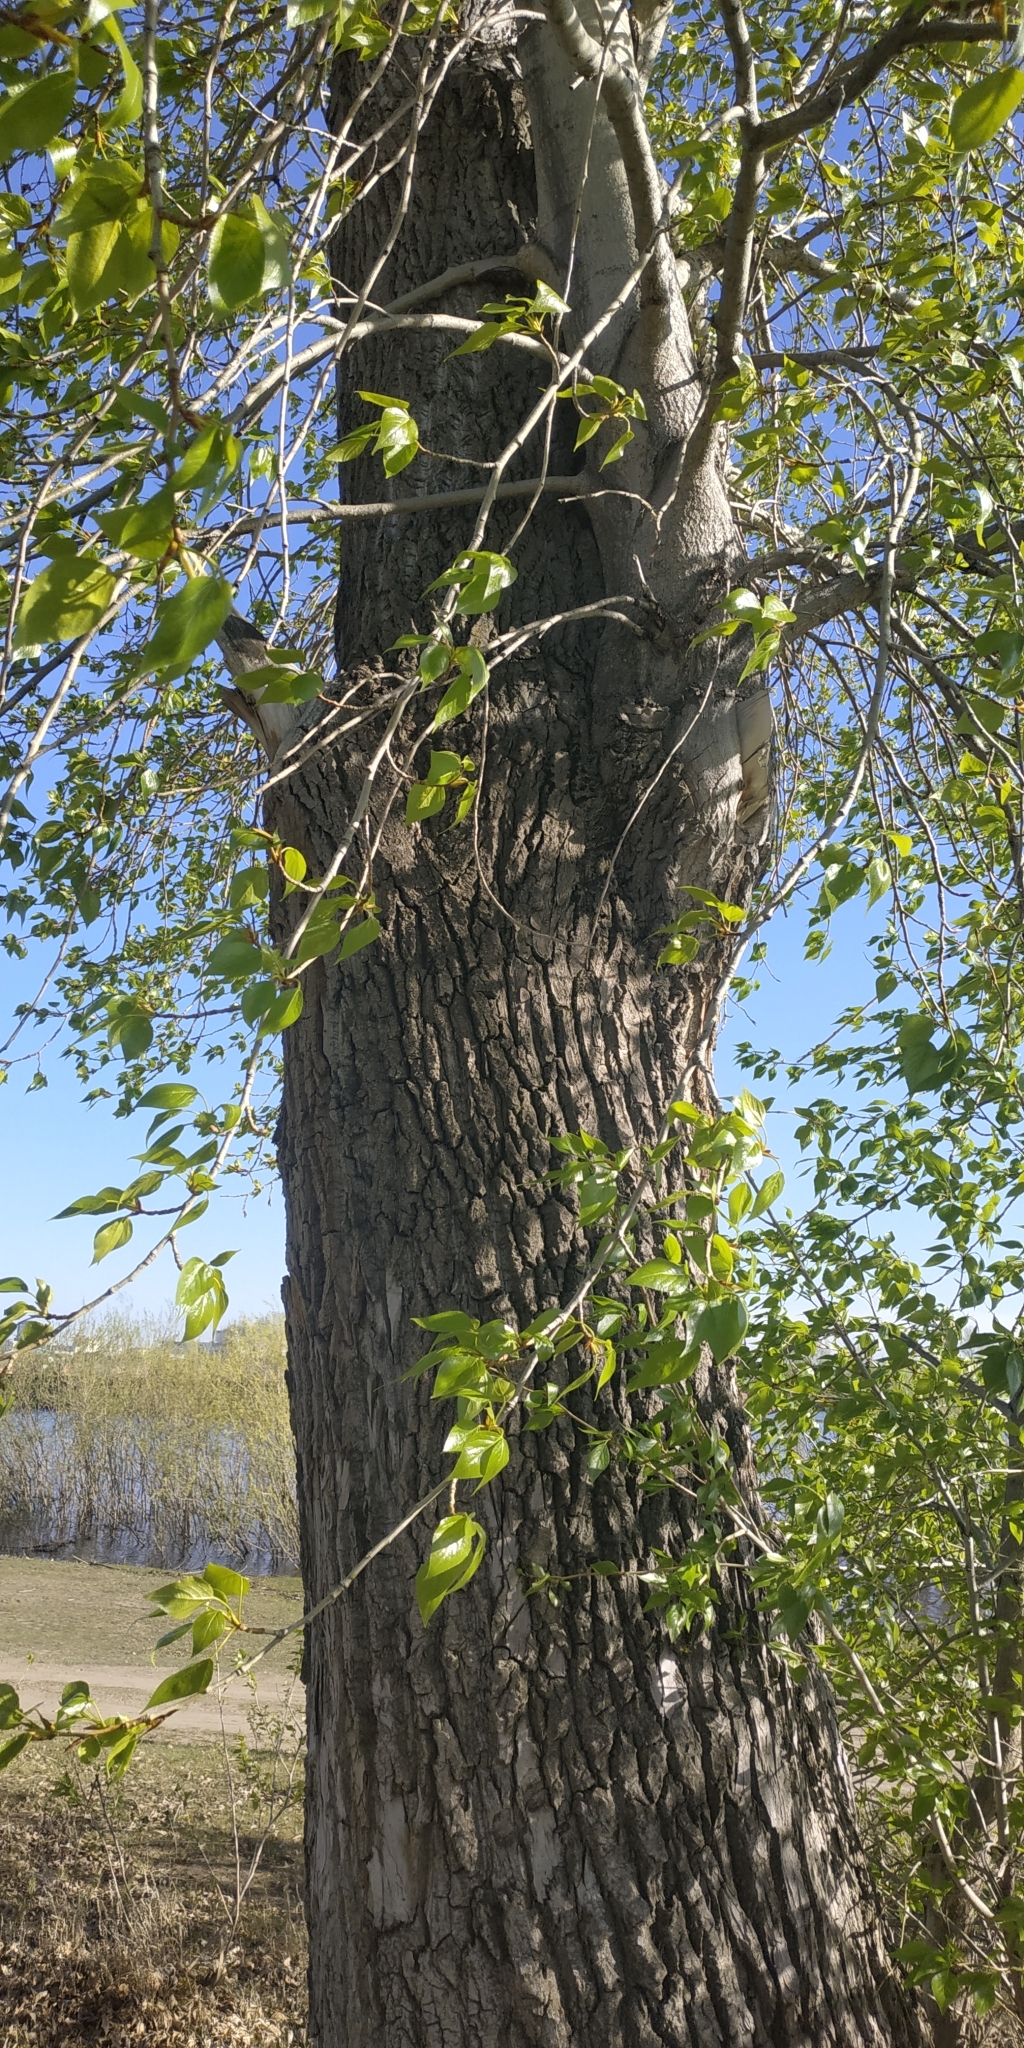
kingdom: Plantae
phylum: Tracheophyta
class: Magnoliopsida
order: Malpighiales
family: Salicaceae
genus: Populus
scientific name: Populus sibirica
